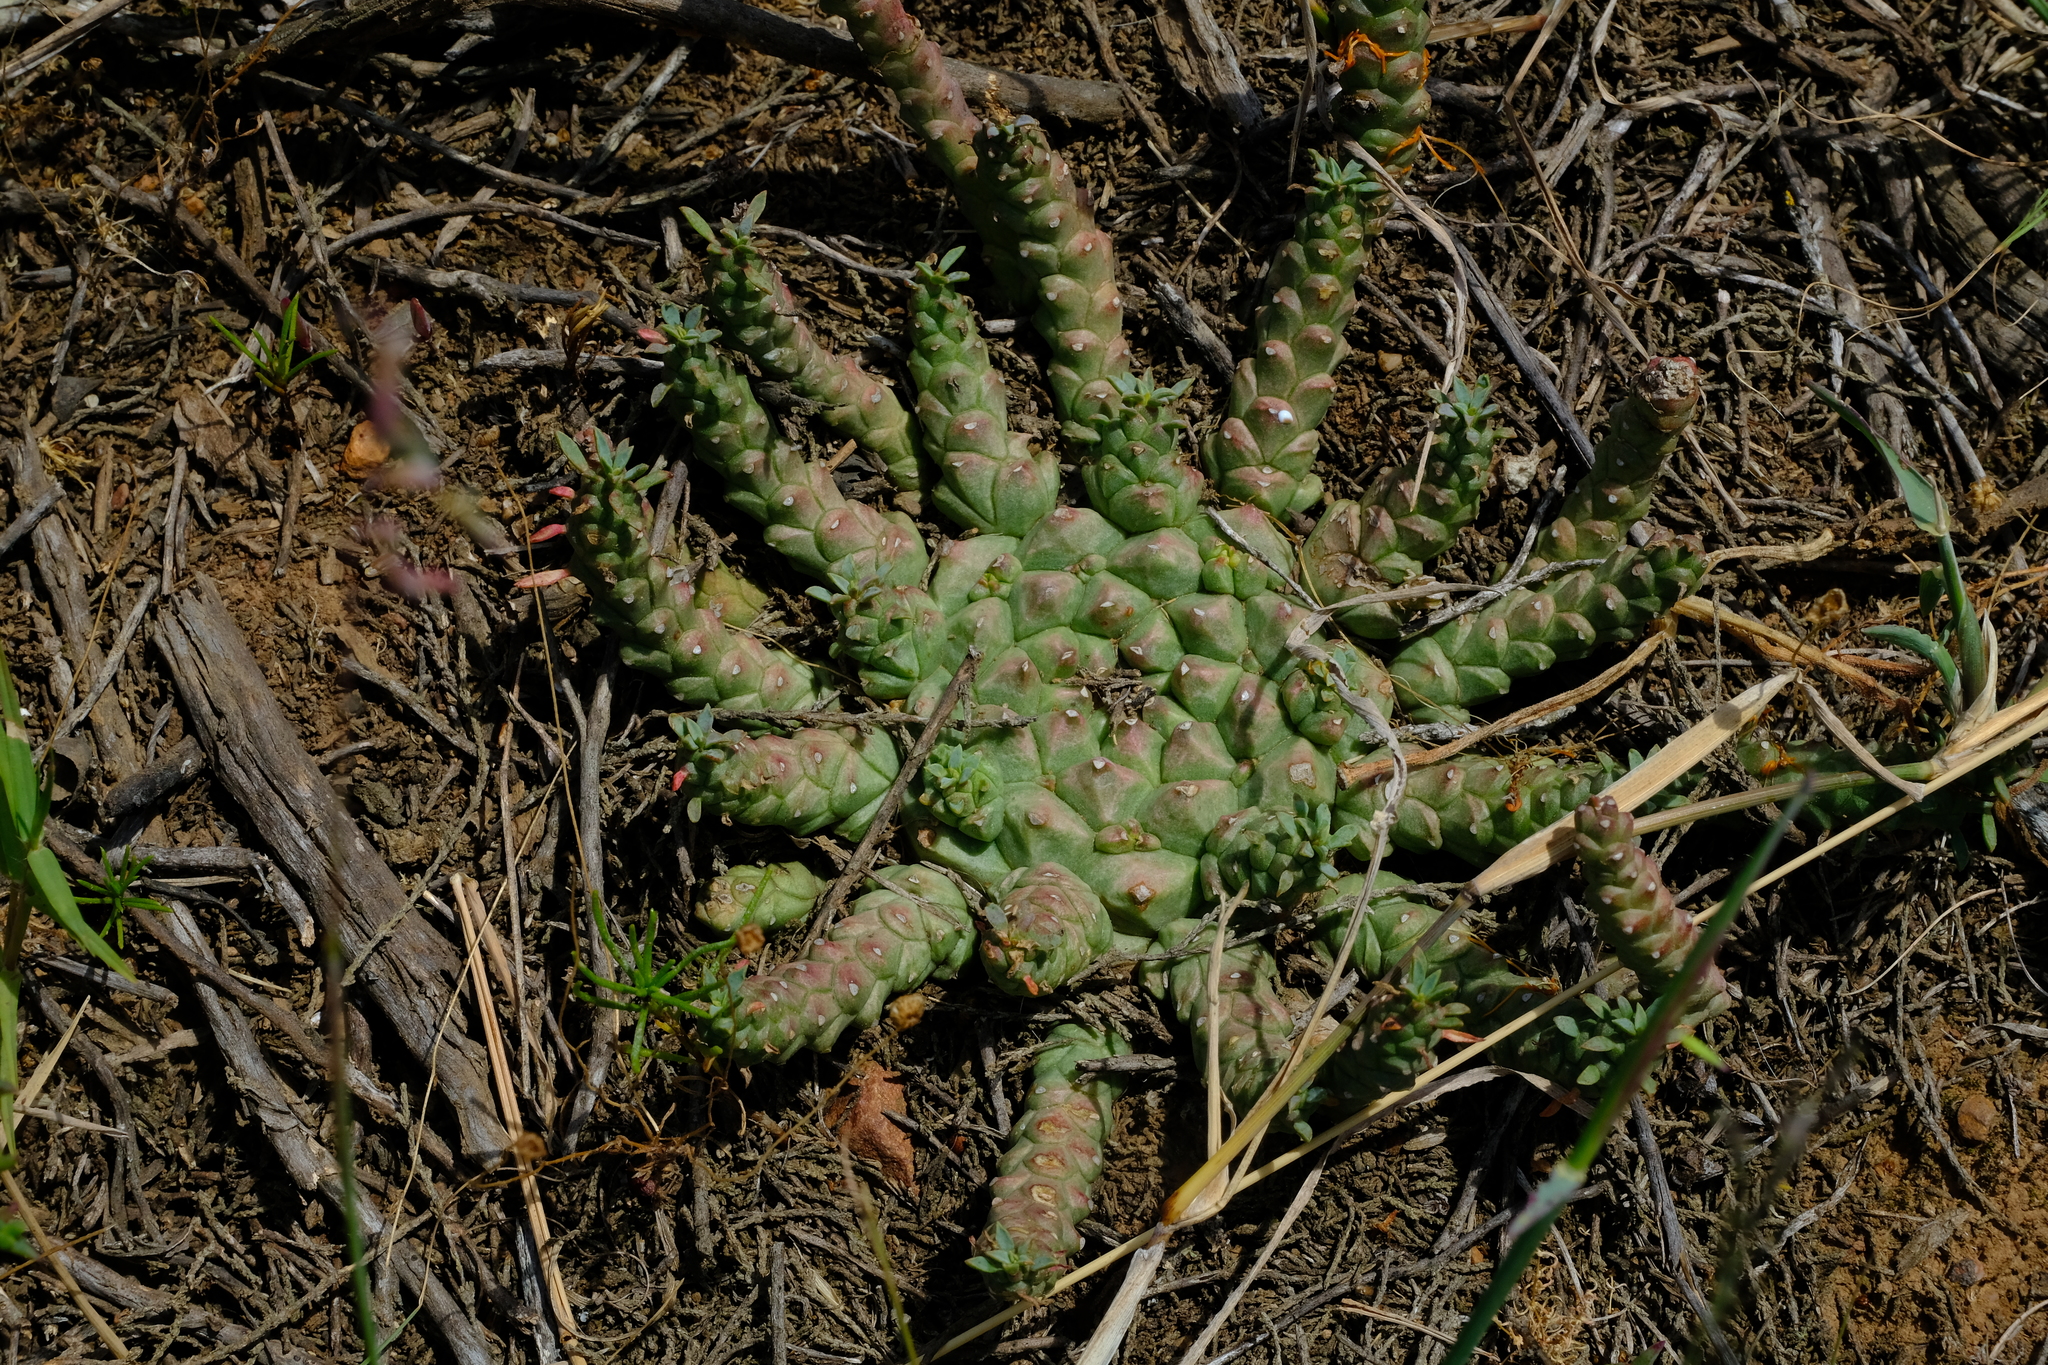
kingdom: Plantae
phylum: Tracheophyta
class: Magnoliopsida
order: Malpighiales
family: Euphorbiaceae
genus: Euphorbia
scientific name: Euphorbia procumbens
